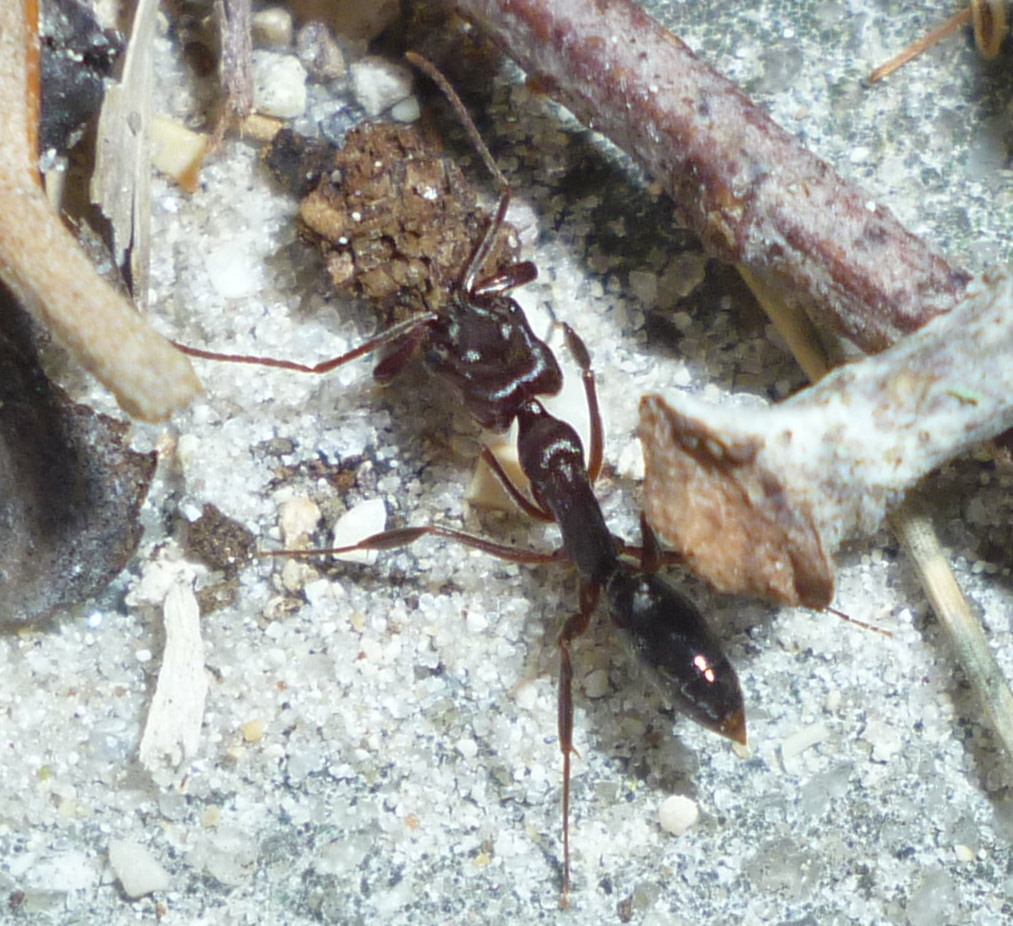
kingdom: Animalia
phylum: Arthropoda
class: Insecta
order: Hymenoptera
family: Formicidae
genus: Odontomachus
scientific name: Odontomachus brunneus
